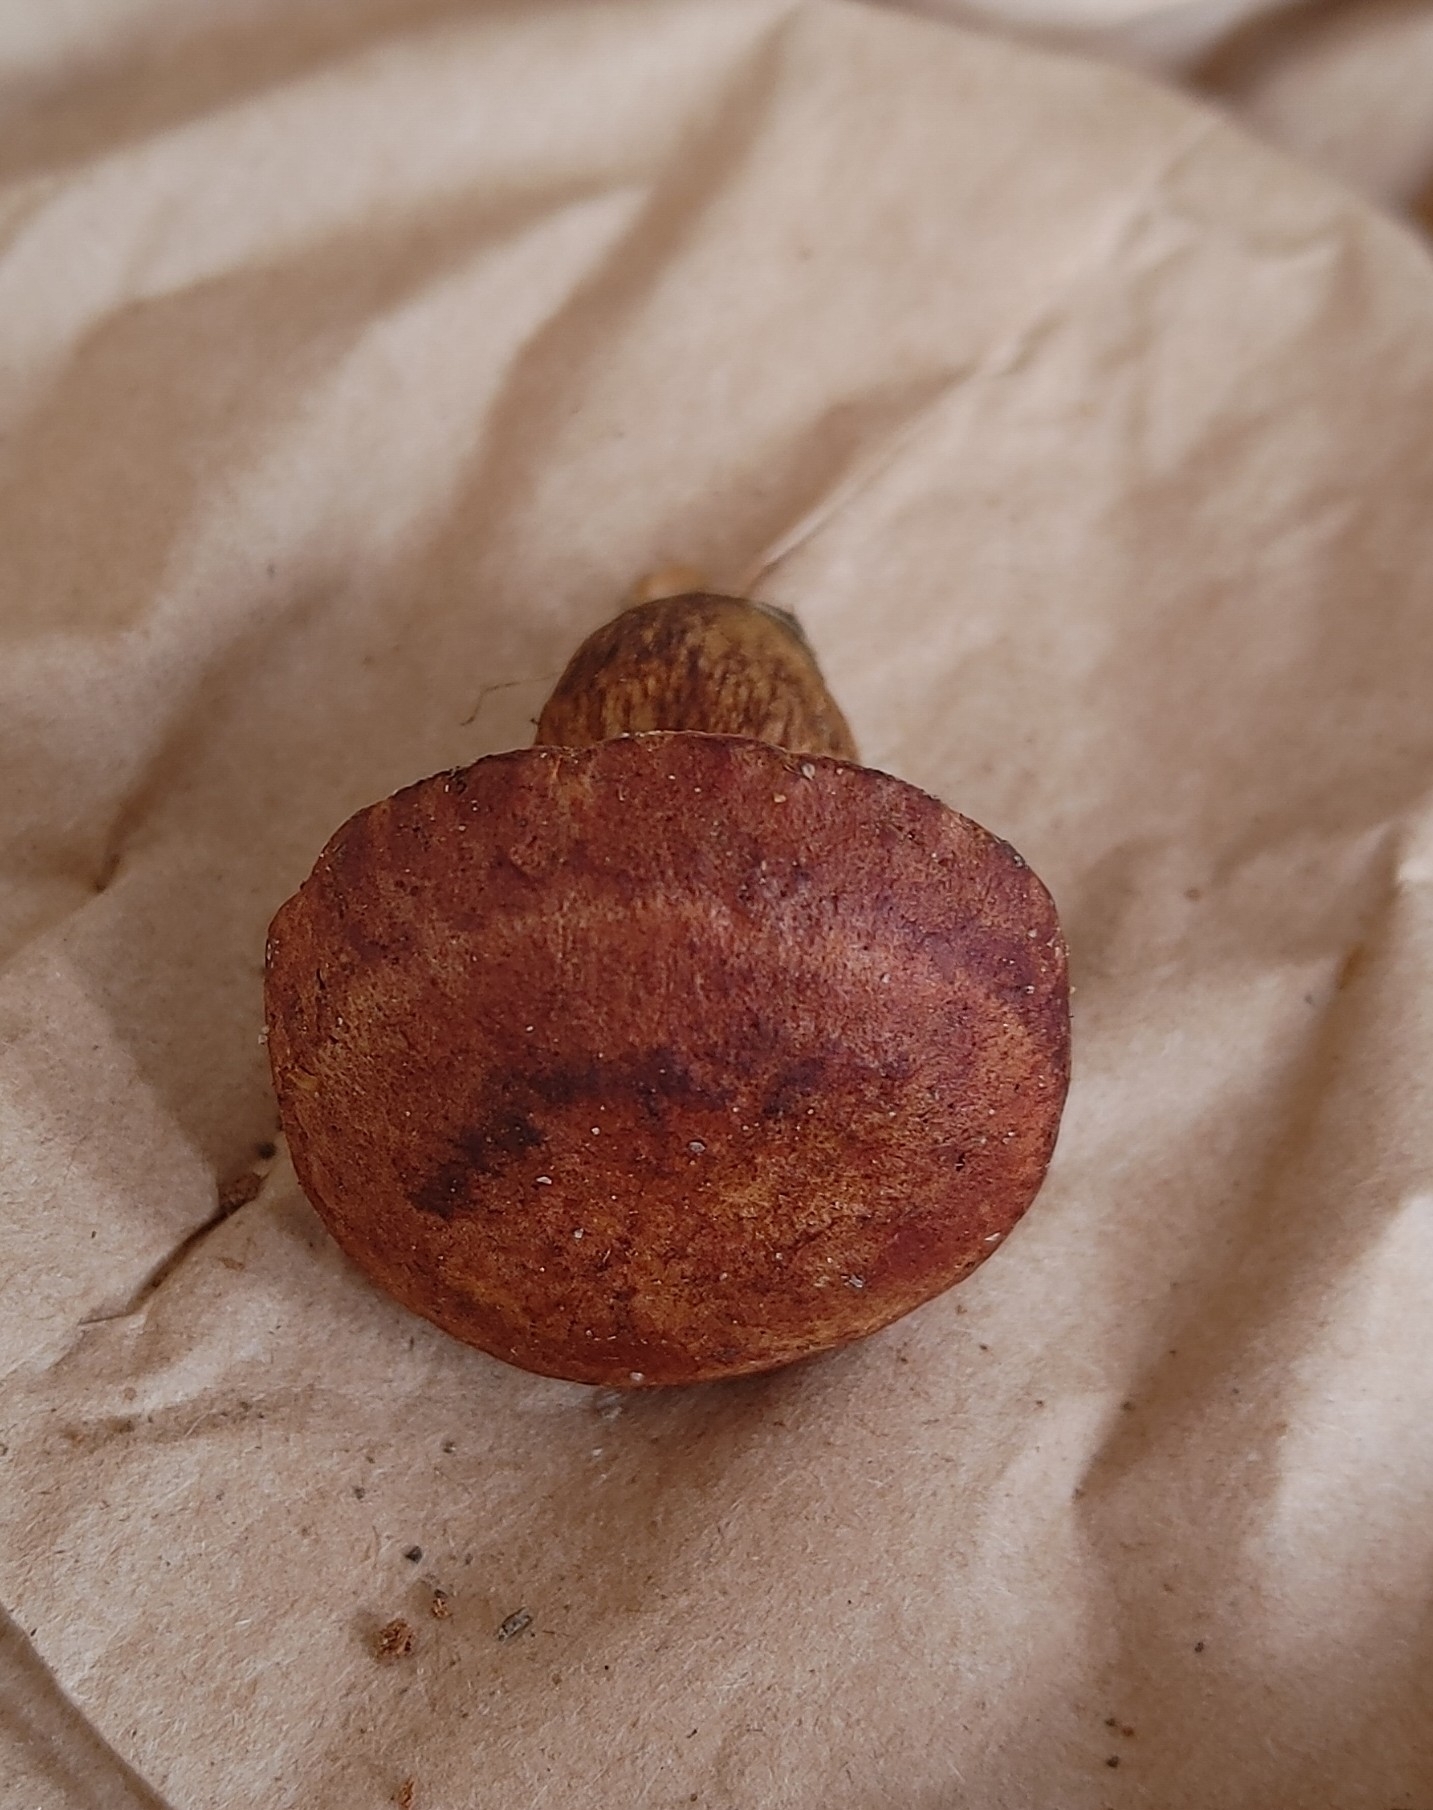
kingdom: Fungi
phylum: Basidiomycota
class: Agaricomycetes
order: Boletales
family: Boletaceae
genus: Aureoboletus
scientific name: Aureoboletus innixus
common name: Clustered brown bolete
